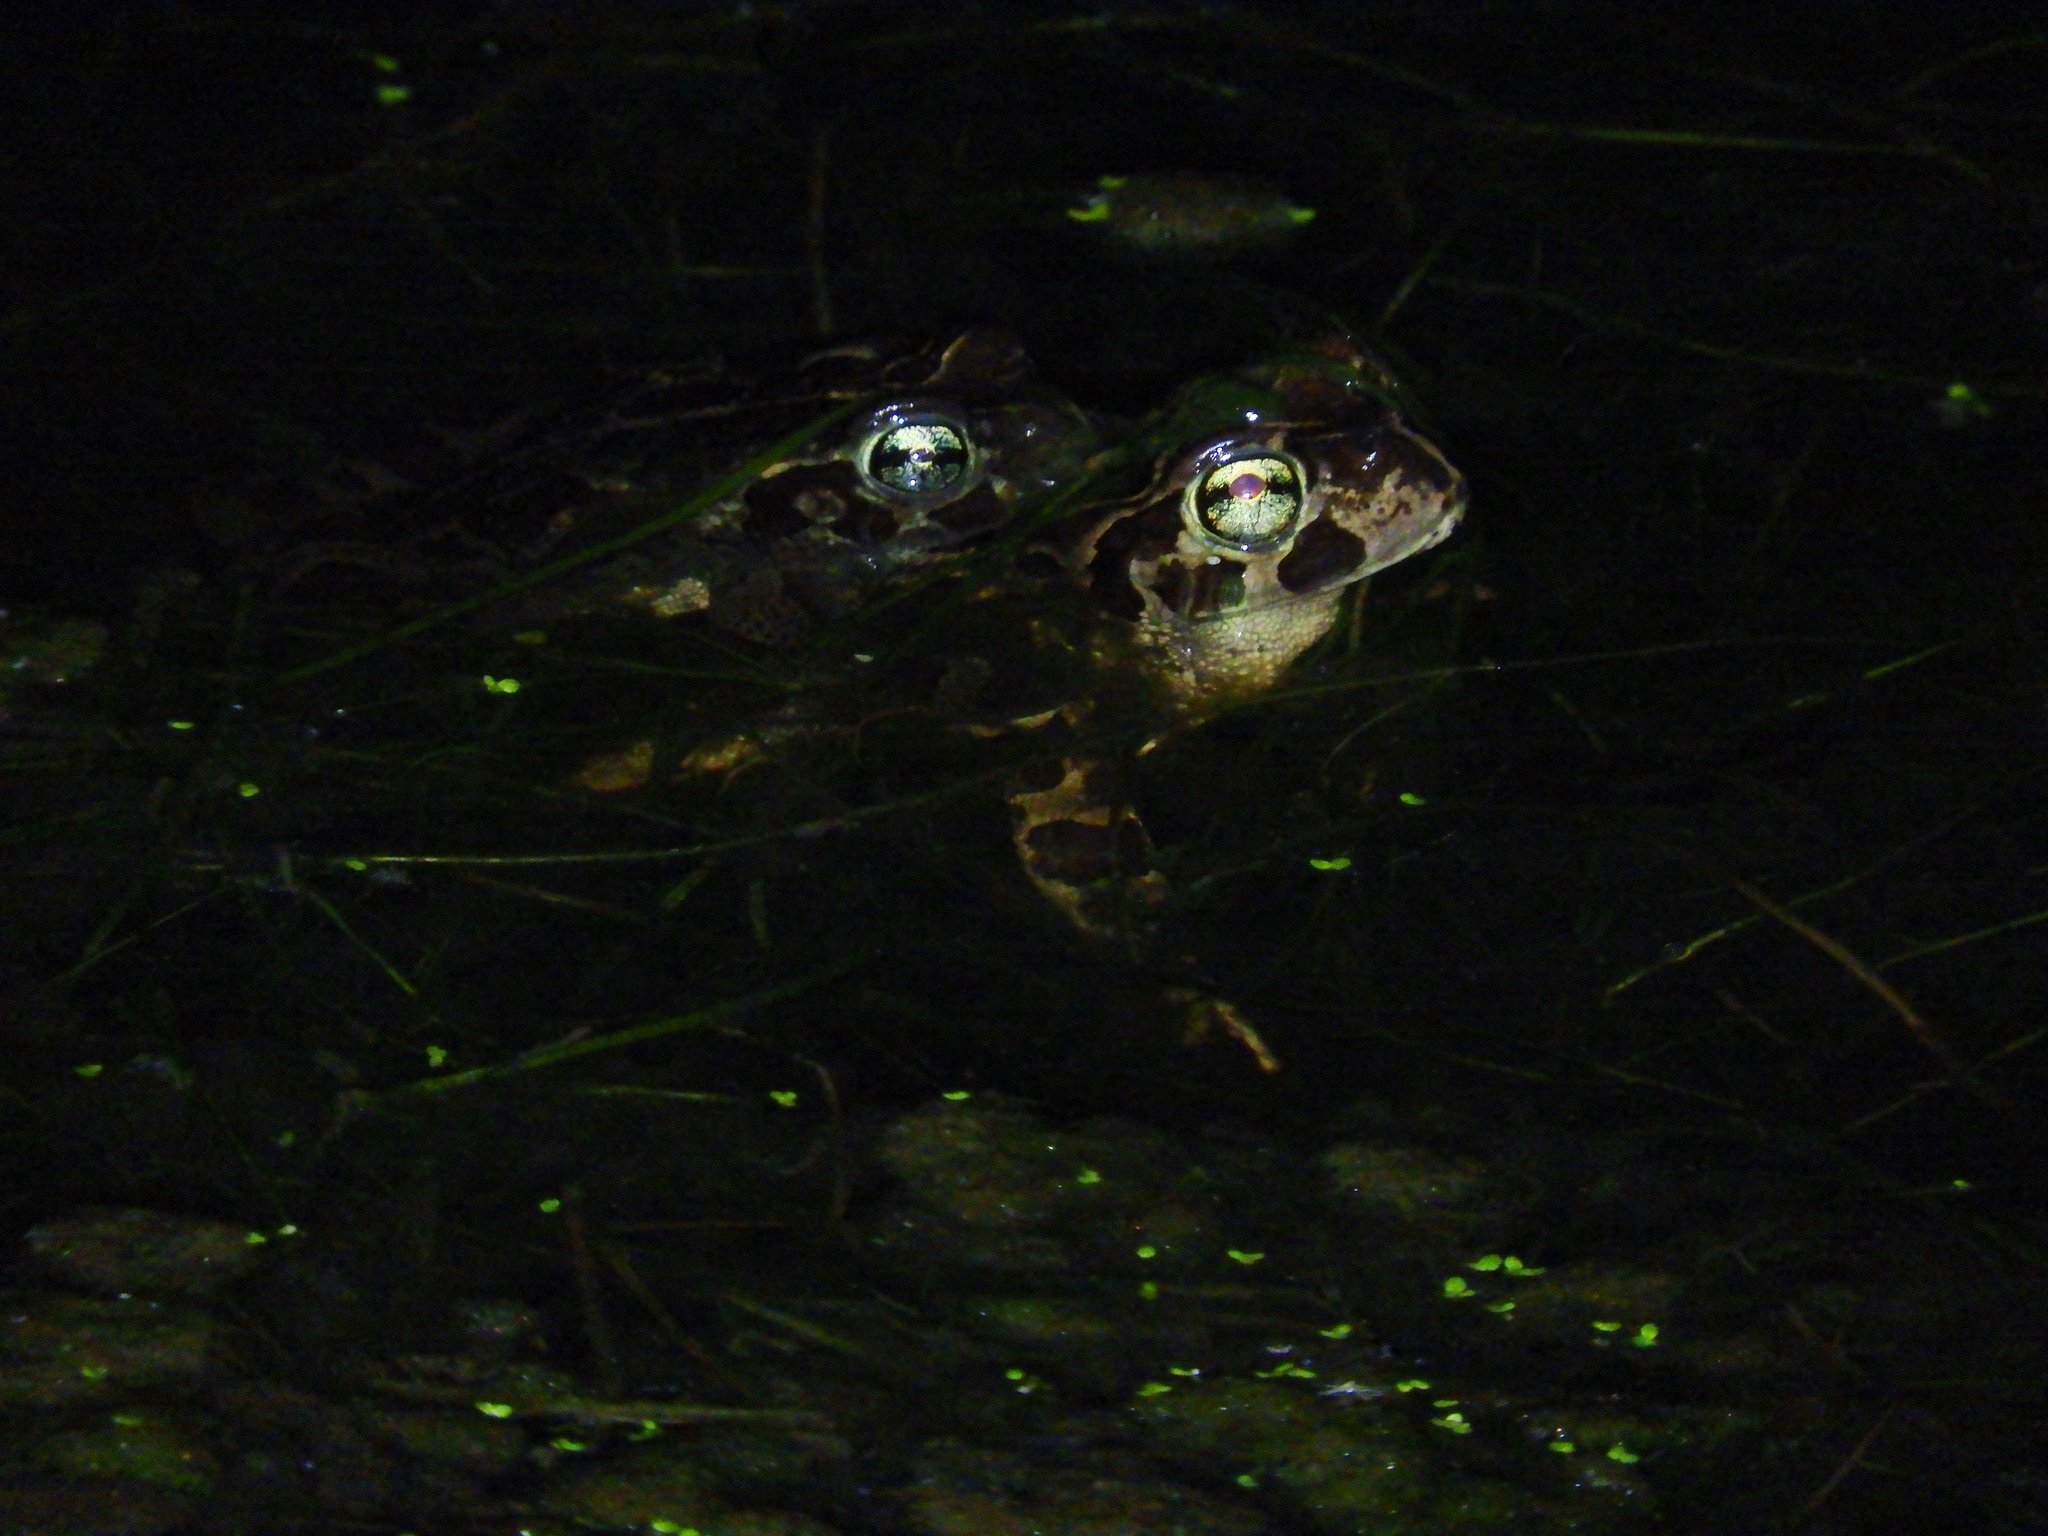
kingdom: Animalia
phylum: Chordata
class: Amphibia
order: Anura
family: Bufonidae
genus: Sclerophrys
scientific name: Sclerophrys pantherina
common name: Panther toad
